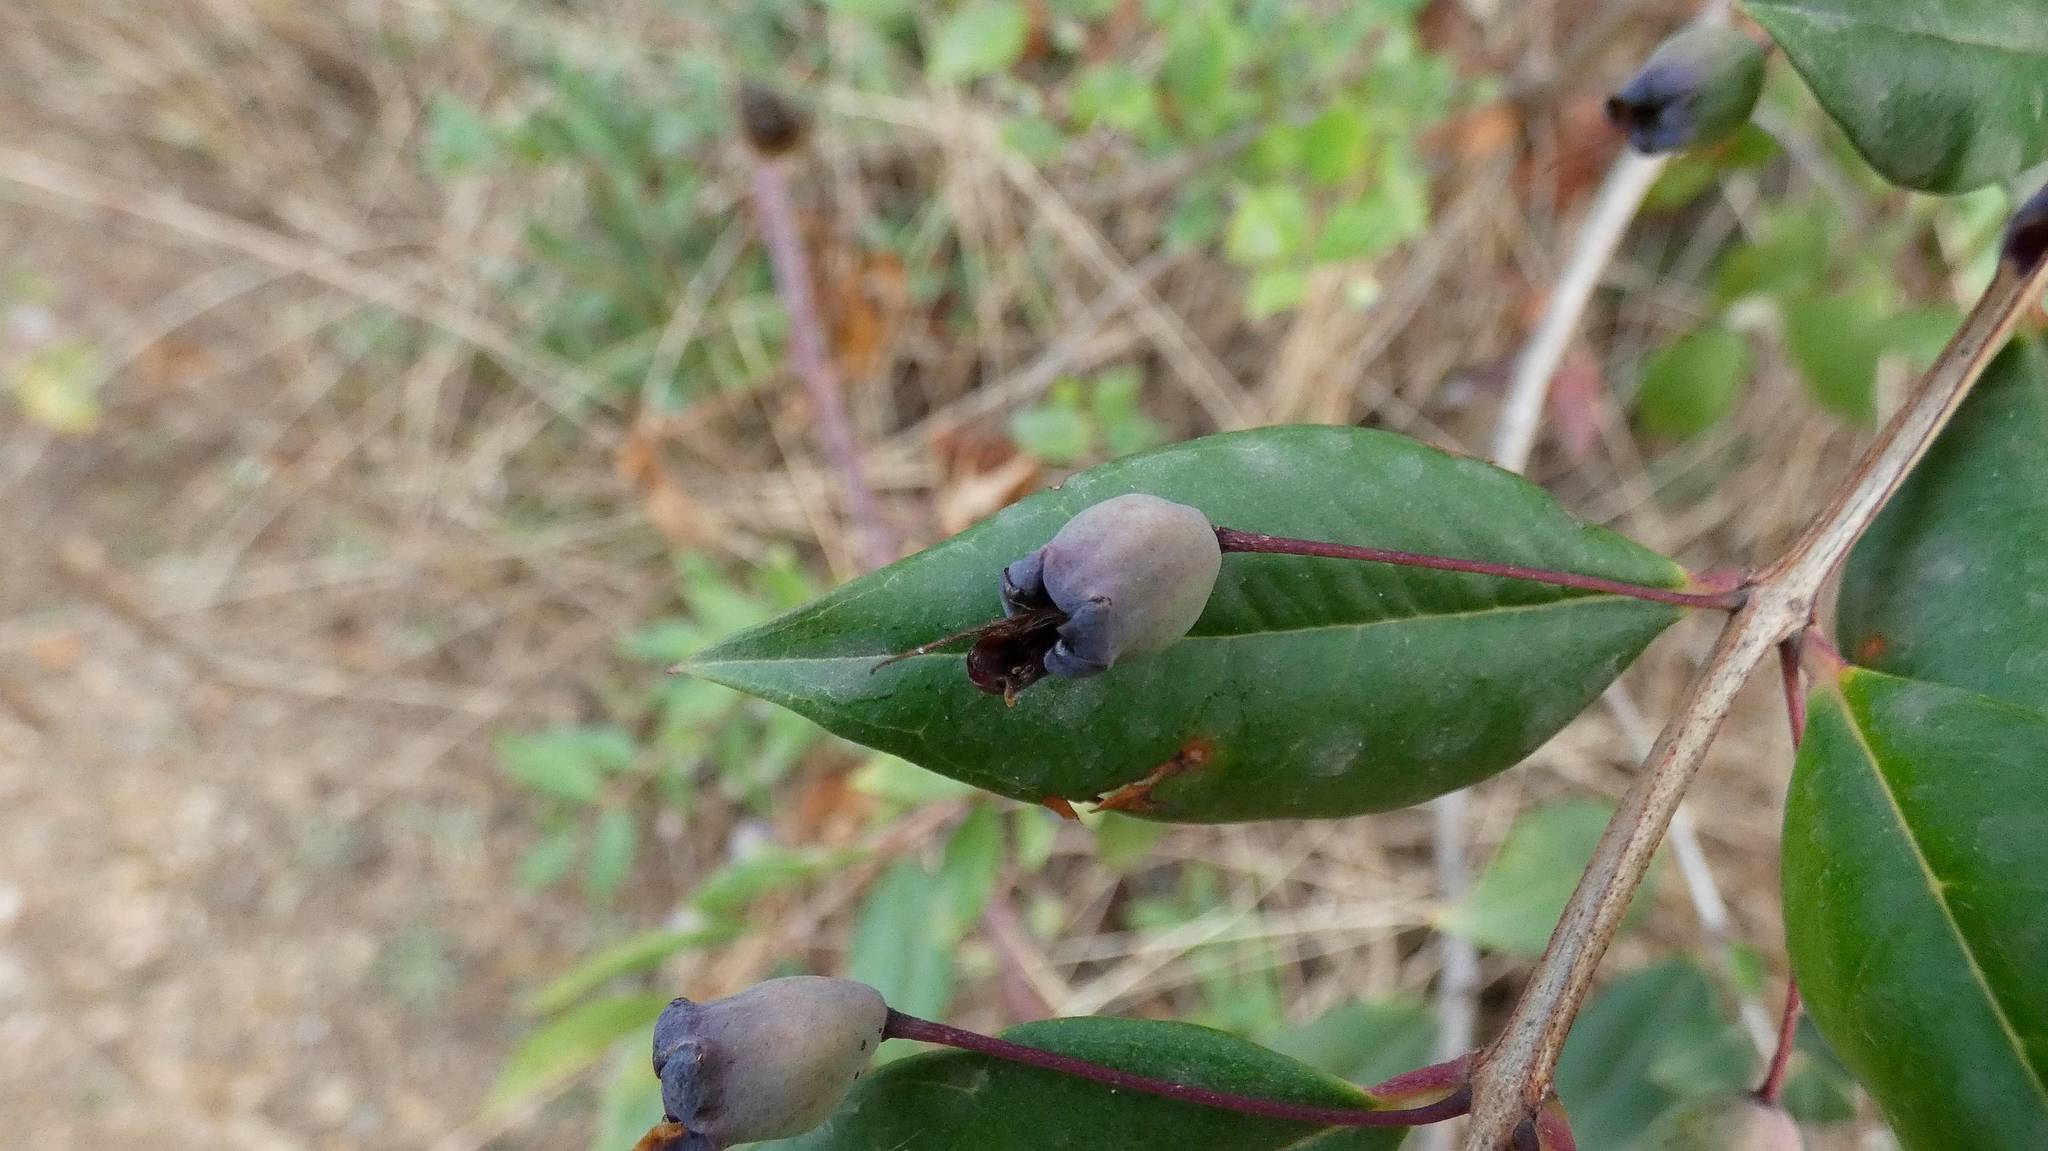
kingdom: Plantae
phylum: Tracheophyta
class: Magnoliopsida
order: Myrtales
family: Myrtaceae
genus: Myrtus
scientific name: Myrtus communis
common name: Myrtle
